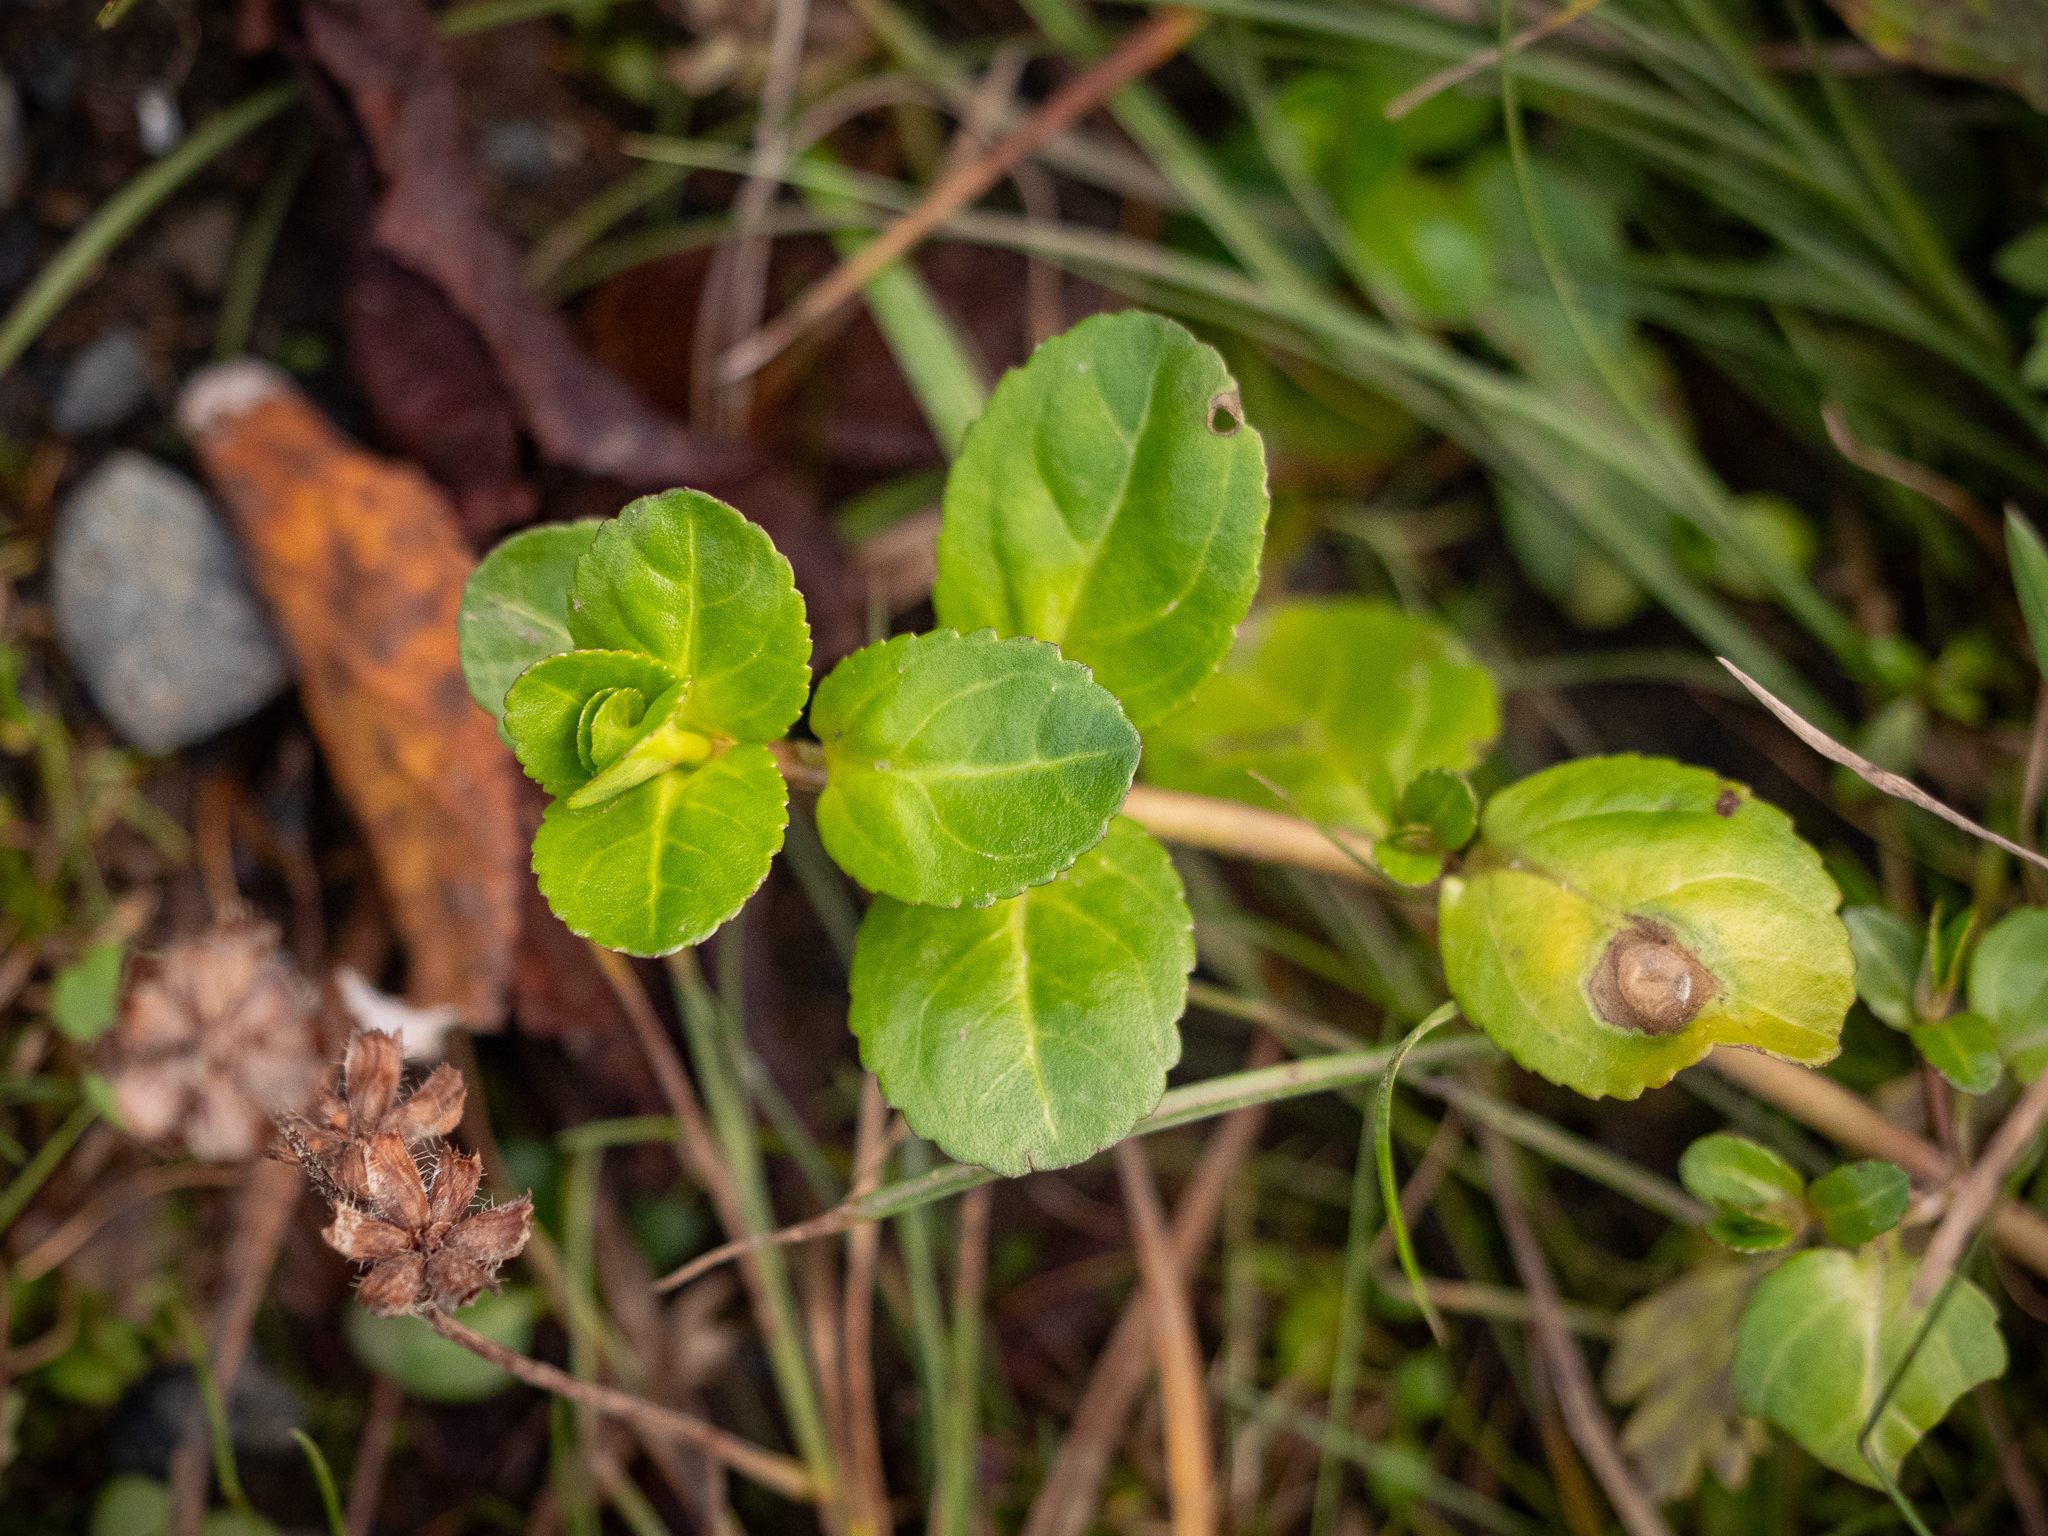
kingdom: Plantae
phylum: Tracheophyta
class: Magnoliopsida
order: Lamiales
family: Plantaginaceae
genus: Veronica
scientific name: Veronica beccabunga
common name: Brooklime
